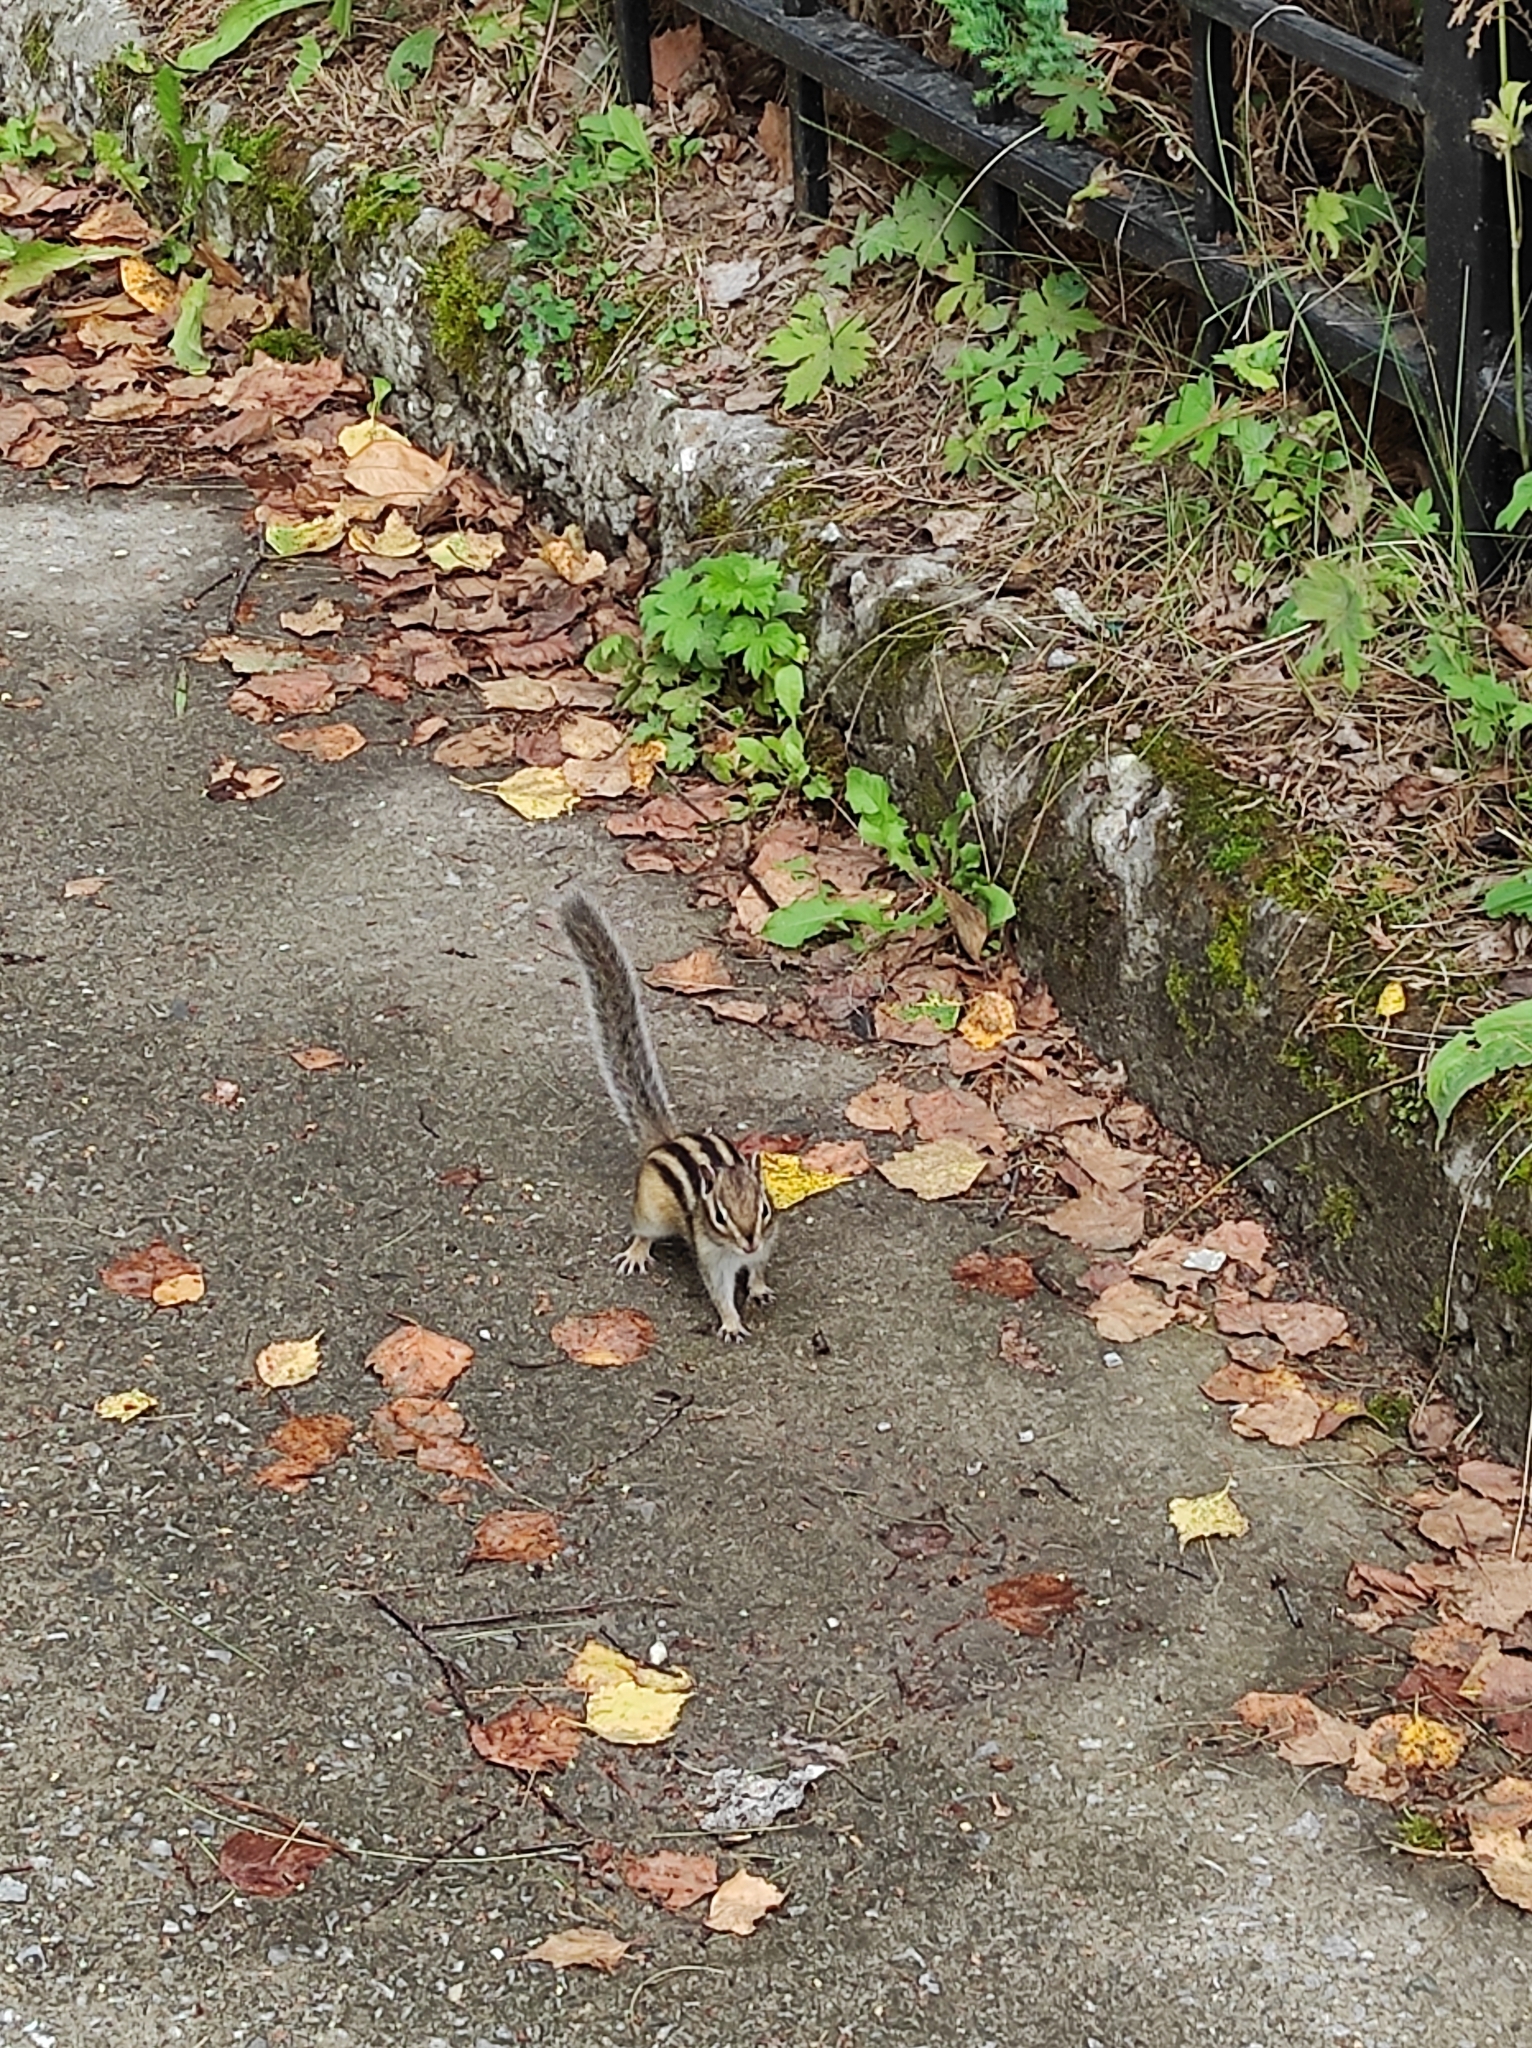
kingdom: Animalia
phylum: Chordata
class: Mammalia
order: Rodentia
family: Sciuridae
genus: Tamias
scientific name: Tamias sibiricus
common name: Siberian chipmunk
